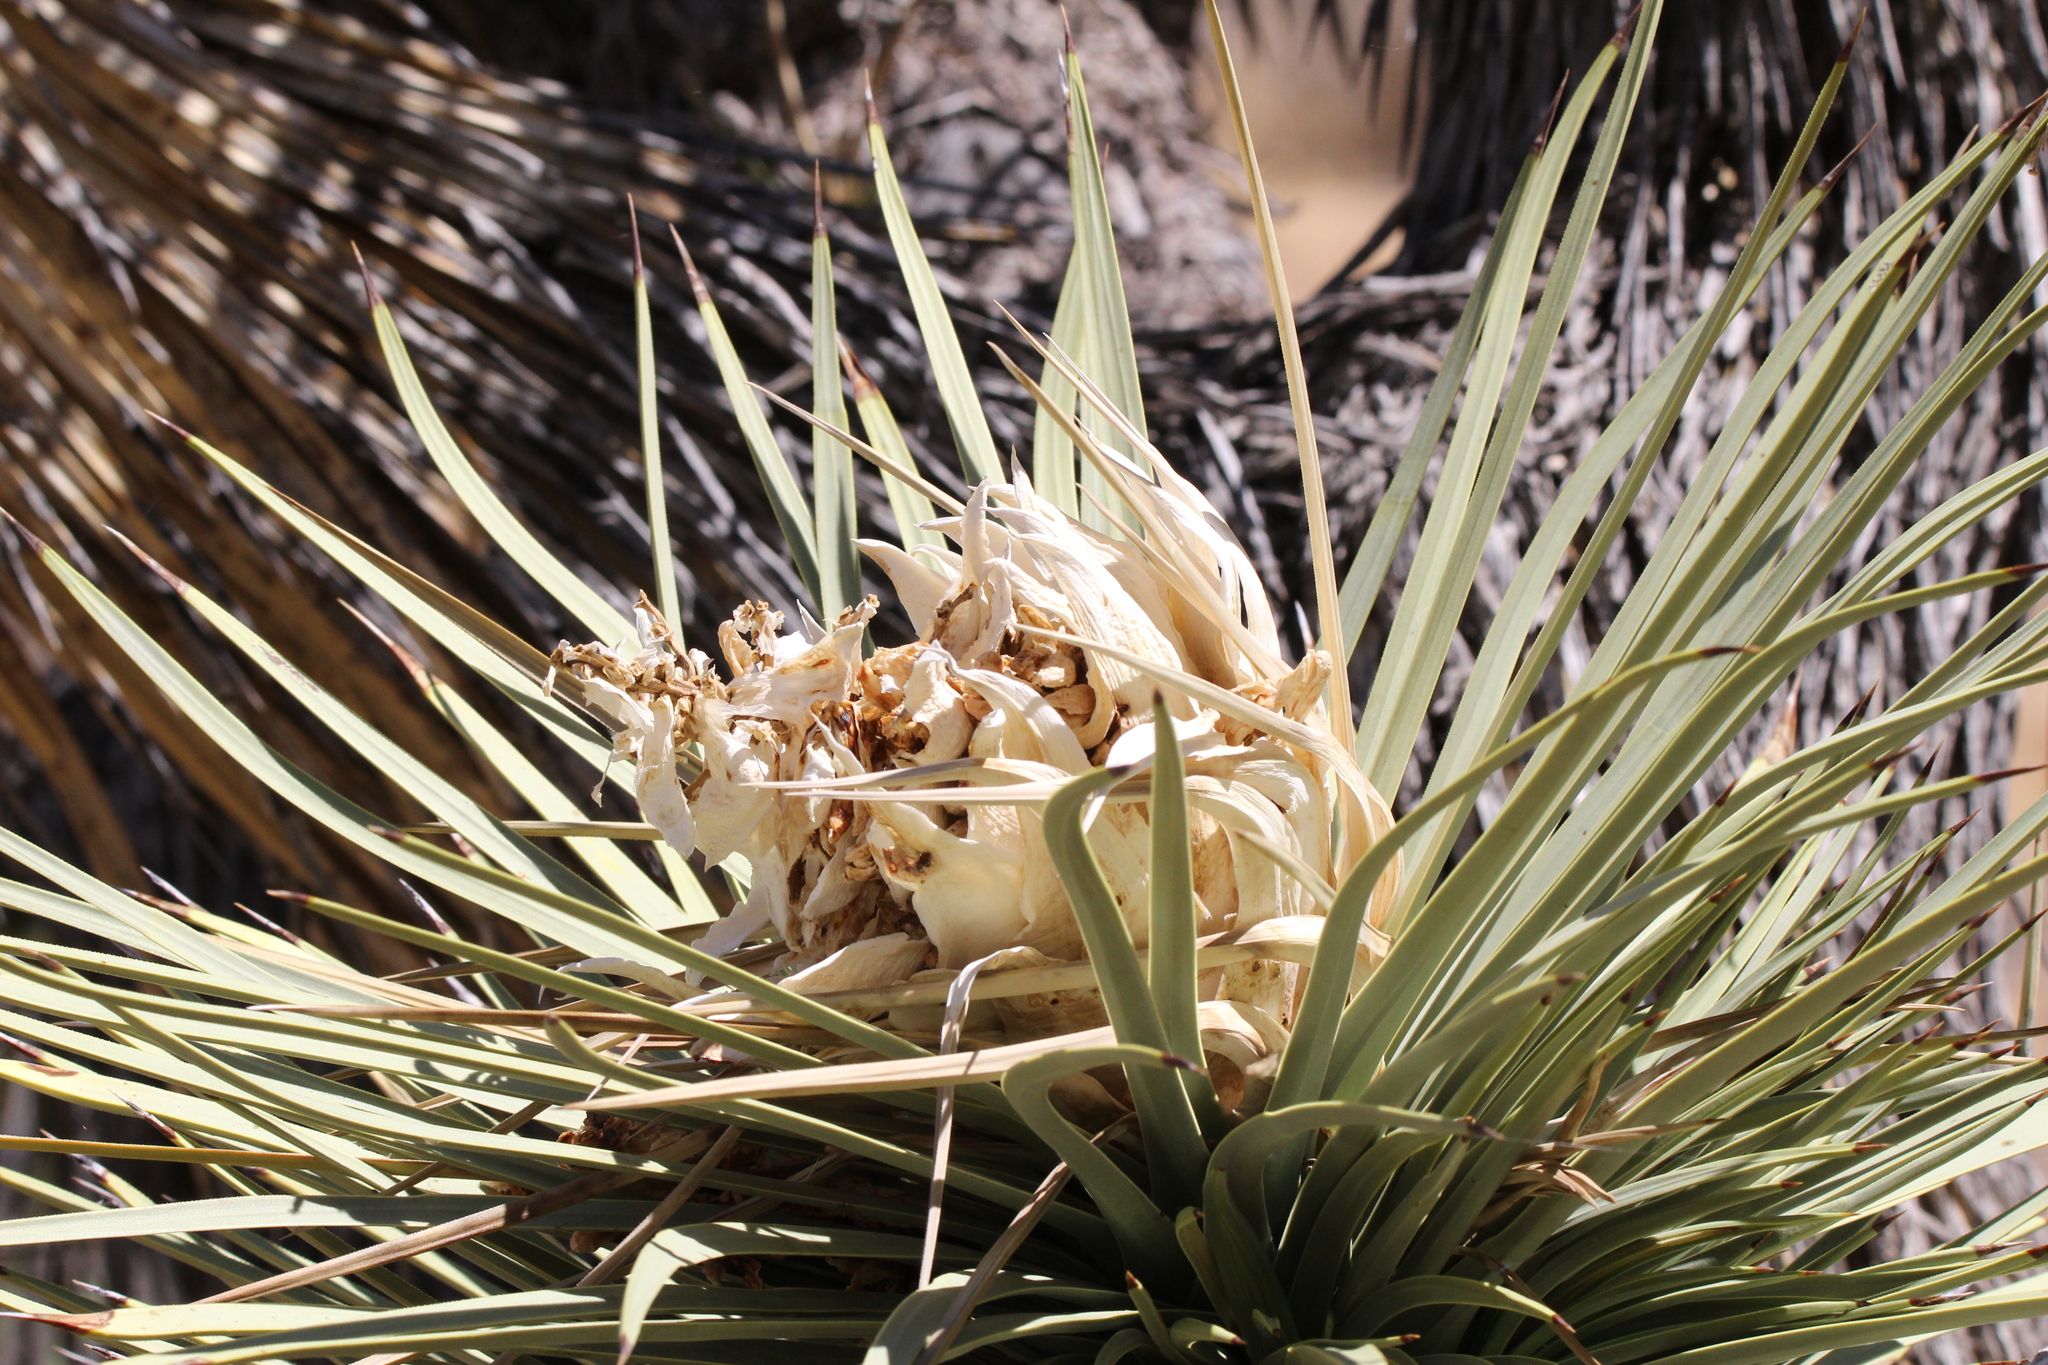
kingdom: Plantae
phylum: Tracheophyta
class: Liliopsida
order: Asparagales
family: Asparagaceae
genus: Yucca
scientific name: Yucca brevifolia
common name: Joshua tree
